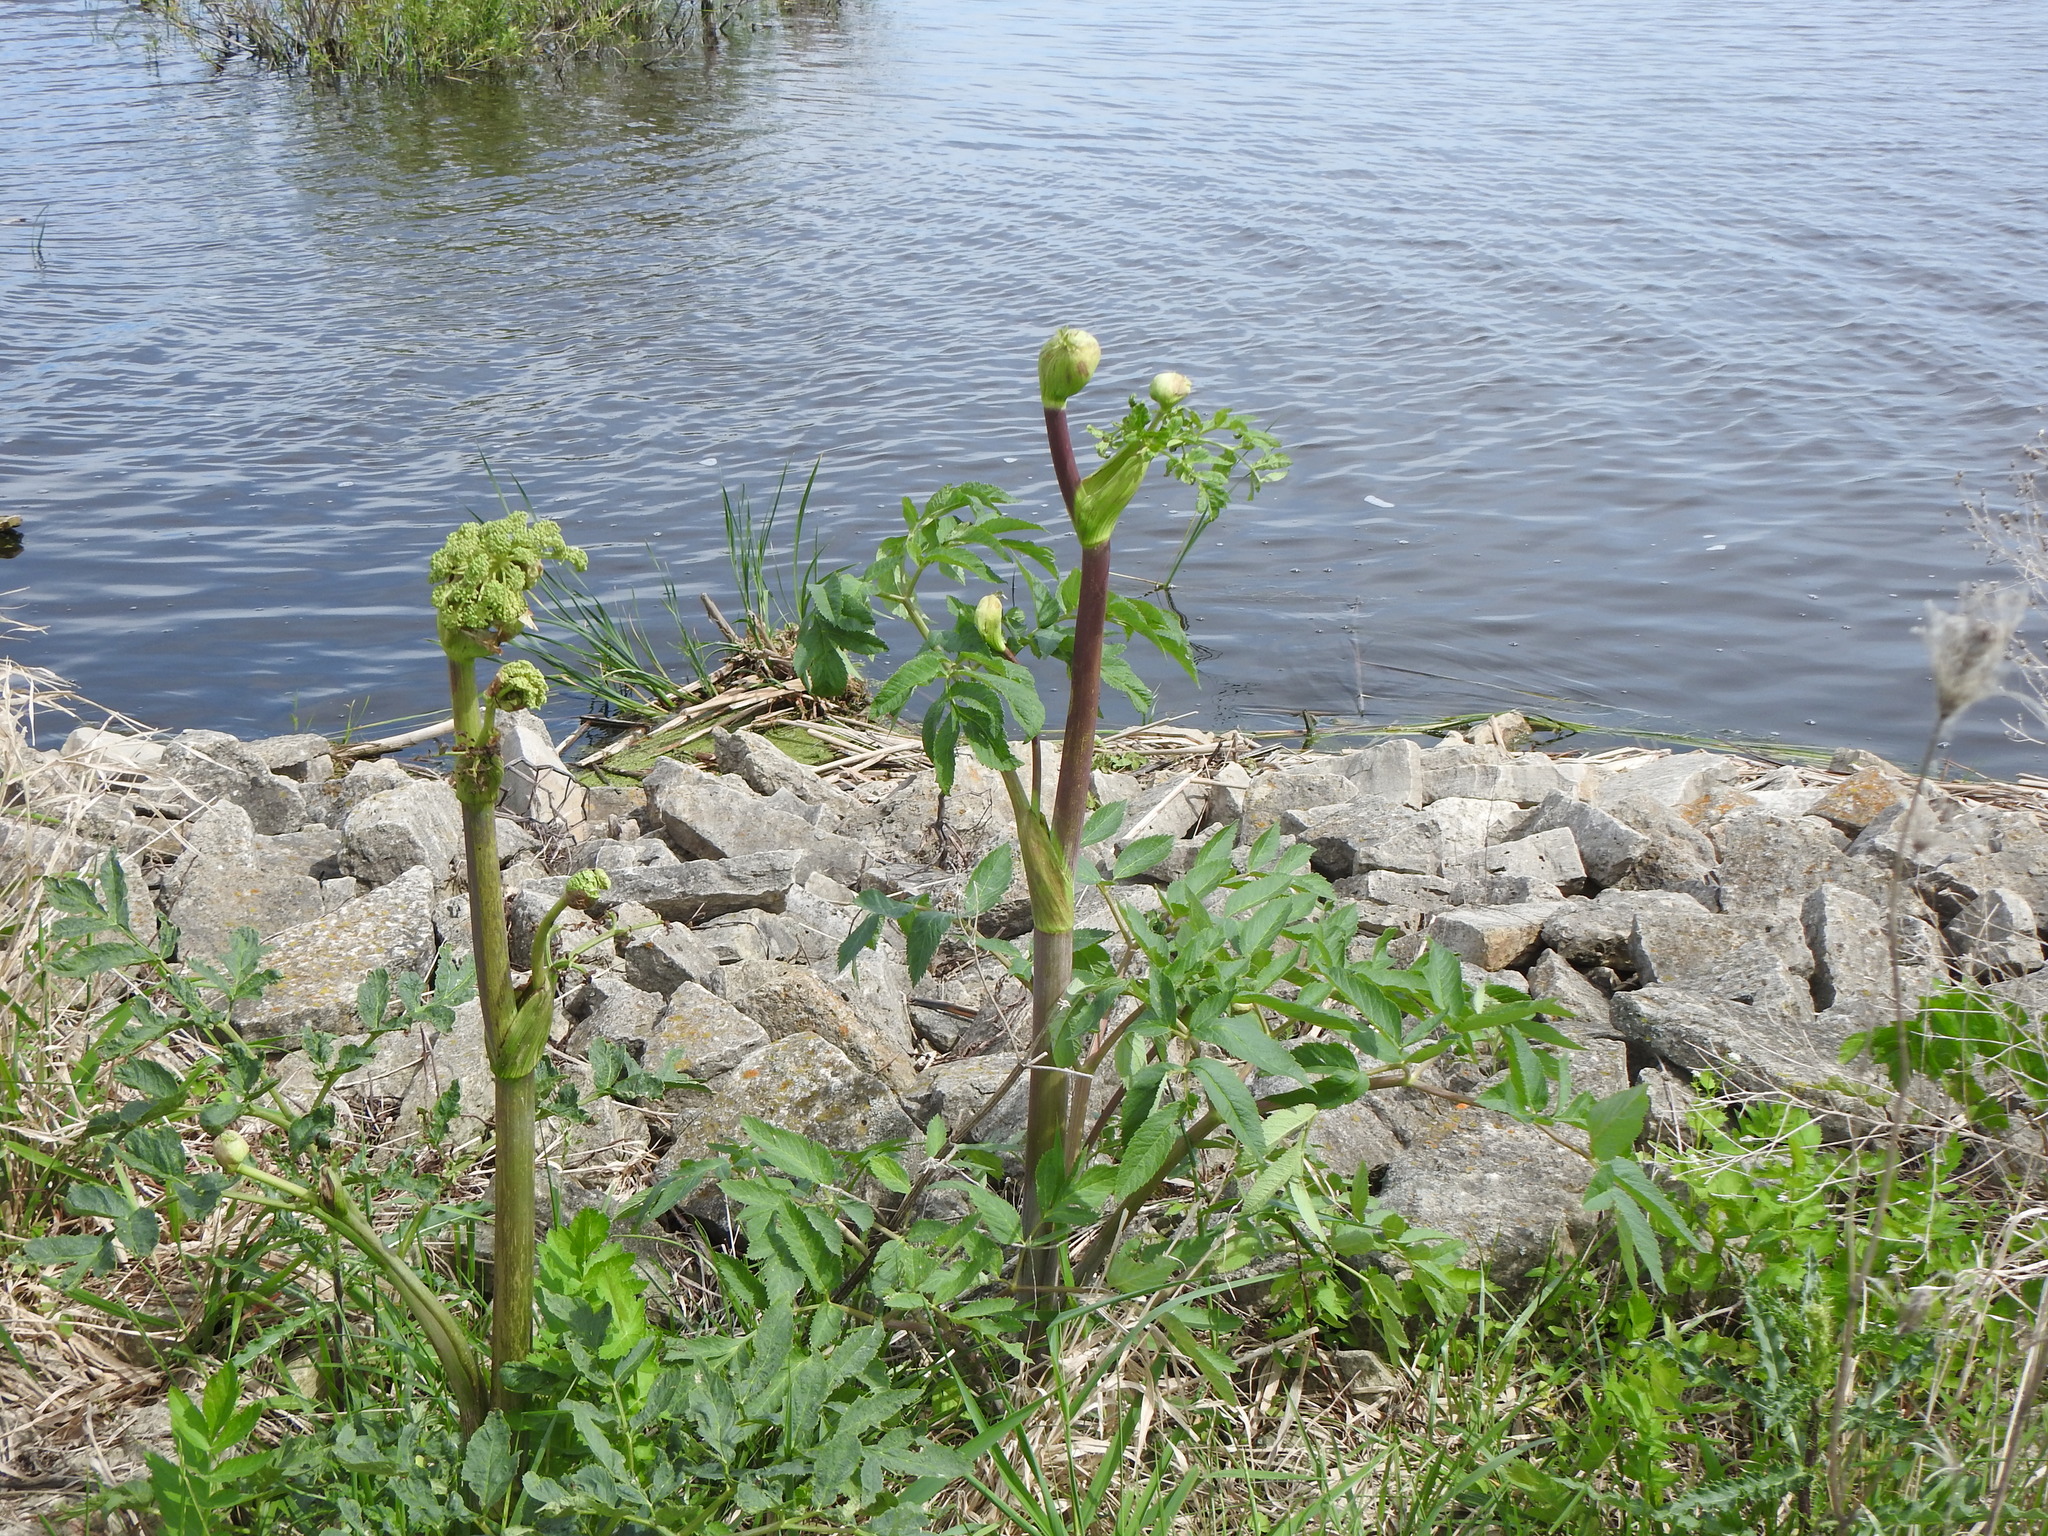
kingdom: Plantae
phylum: Tracheophyta
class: Magnoliopsida
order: Apiales
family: Apiaceae
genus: Angelica
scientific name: Angelica atropurpurea
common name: Great angelica
